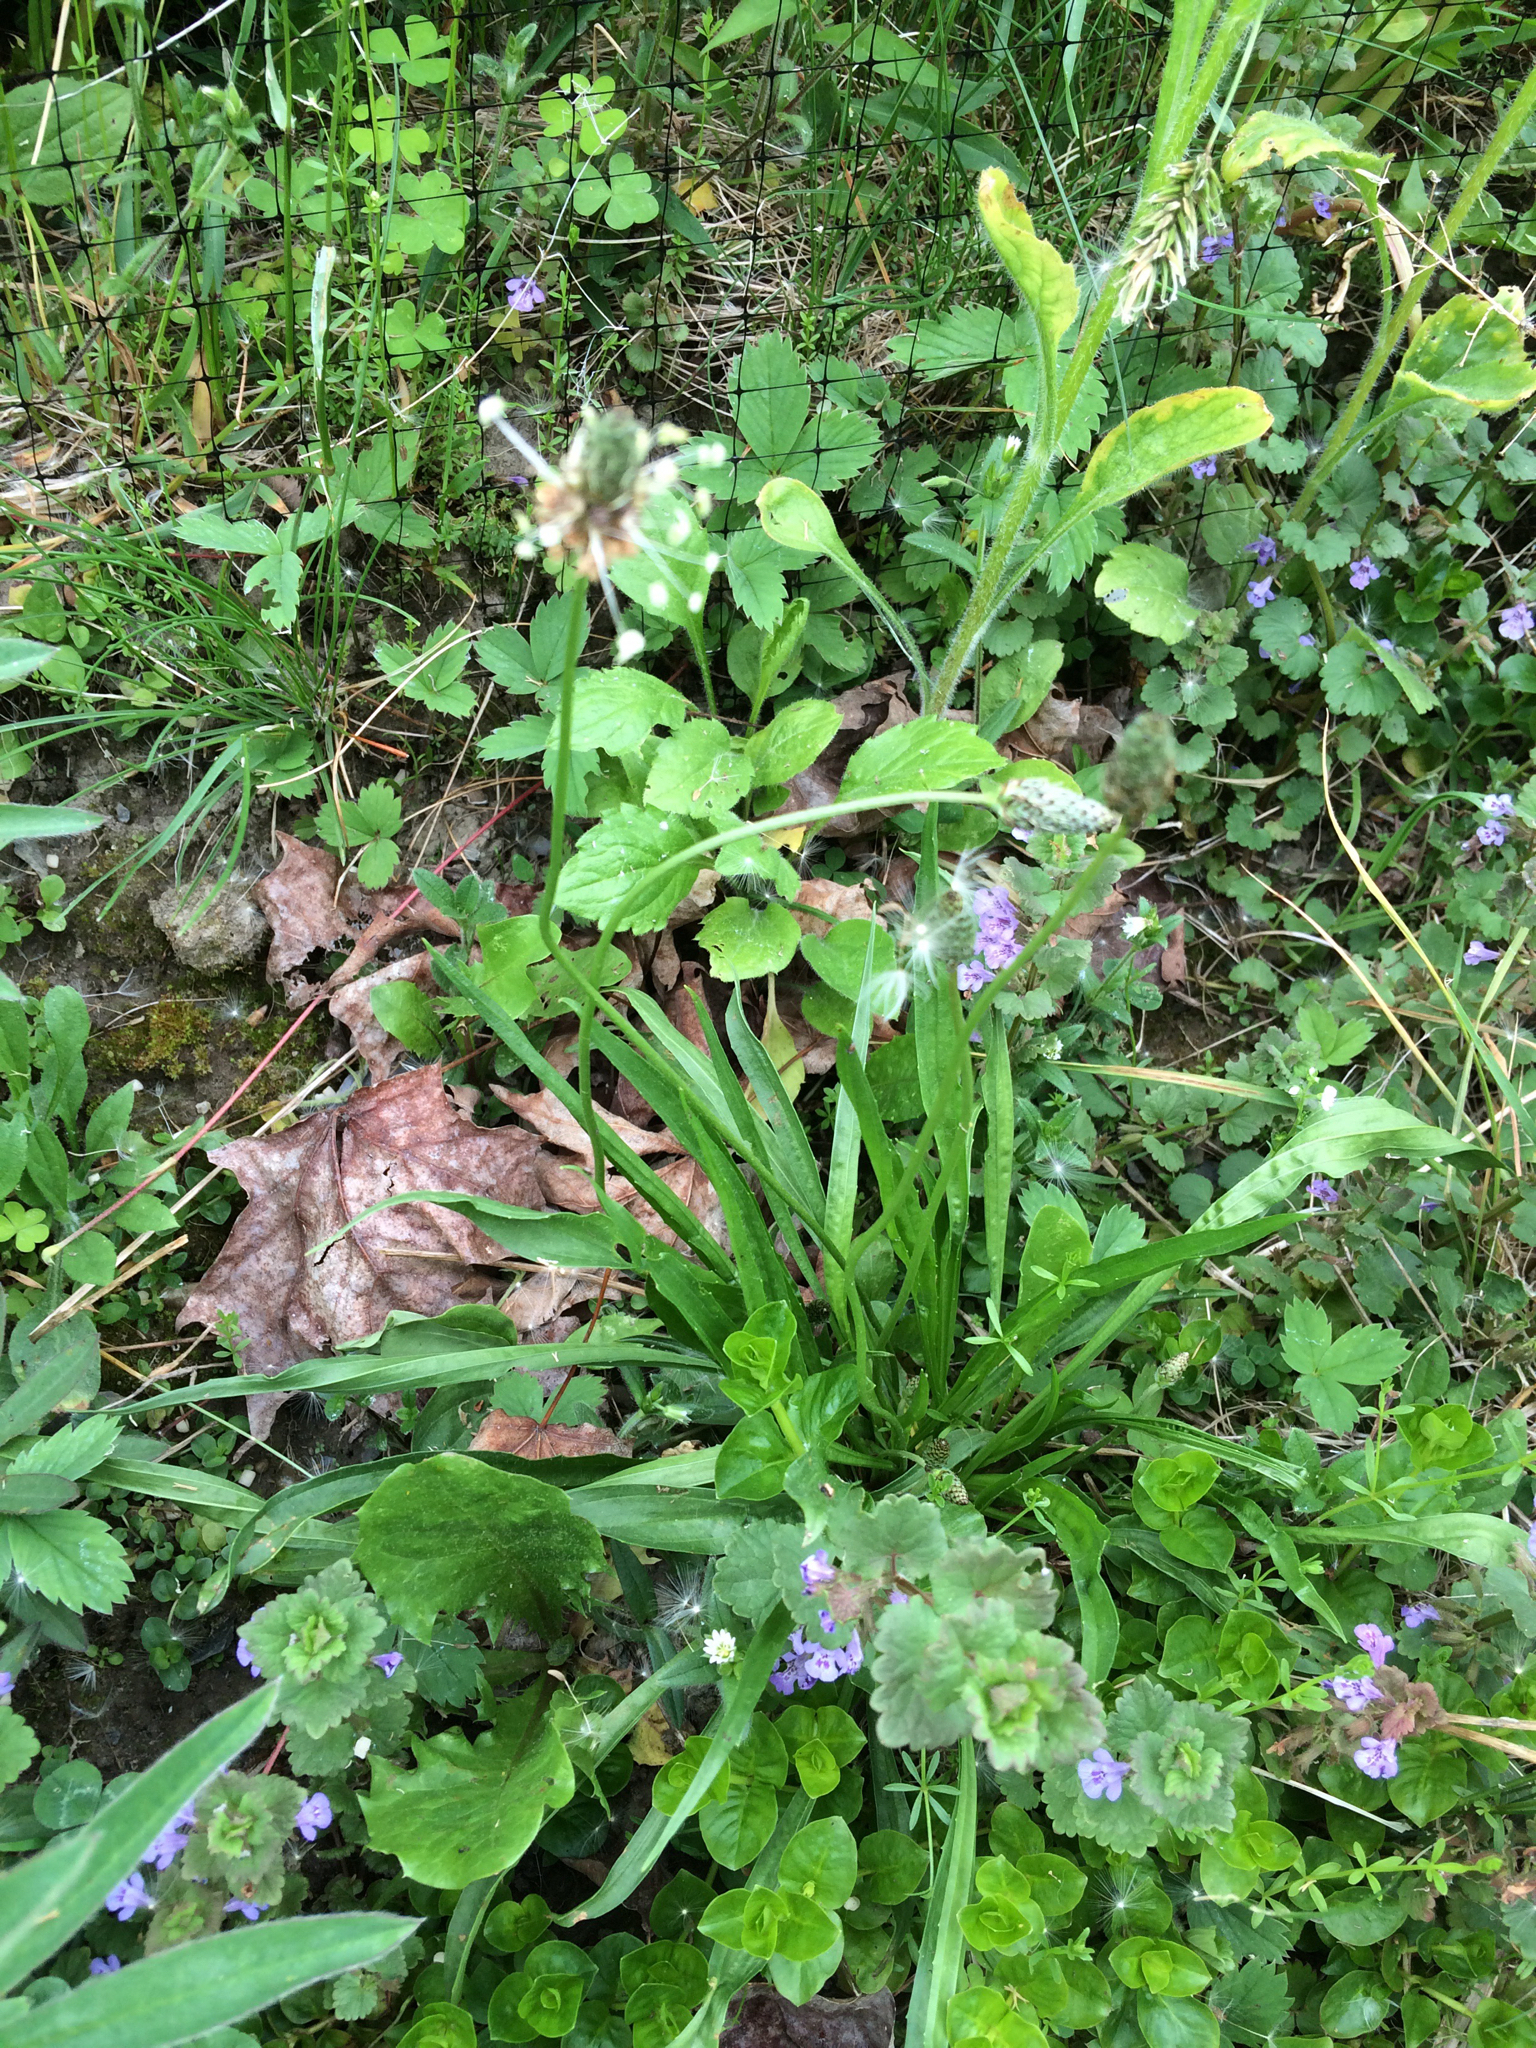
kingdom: Plantae
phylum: Tracheophyta
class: Magnoliopsida
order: Lamiales
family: Plantaginaceae
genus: Plantago
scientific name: Plantago lanceolata
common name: Ribwort plantain
